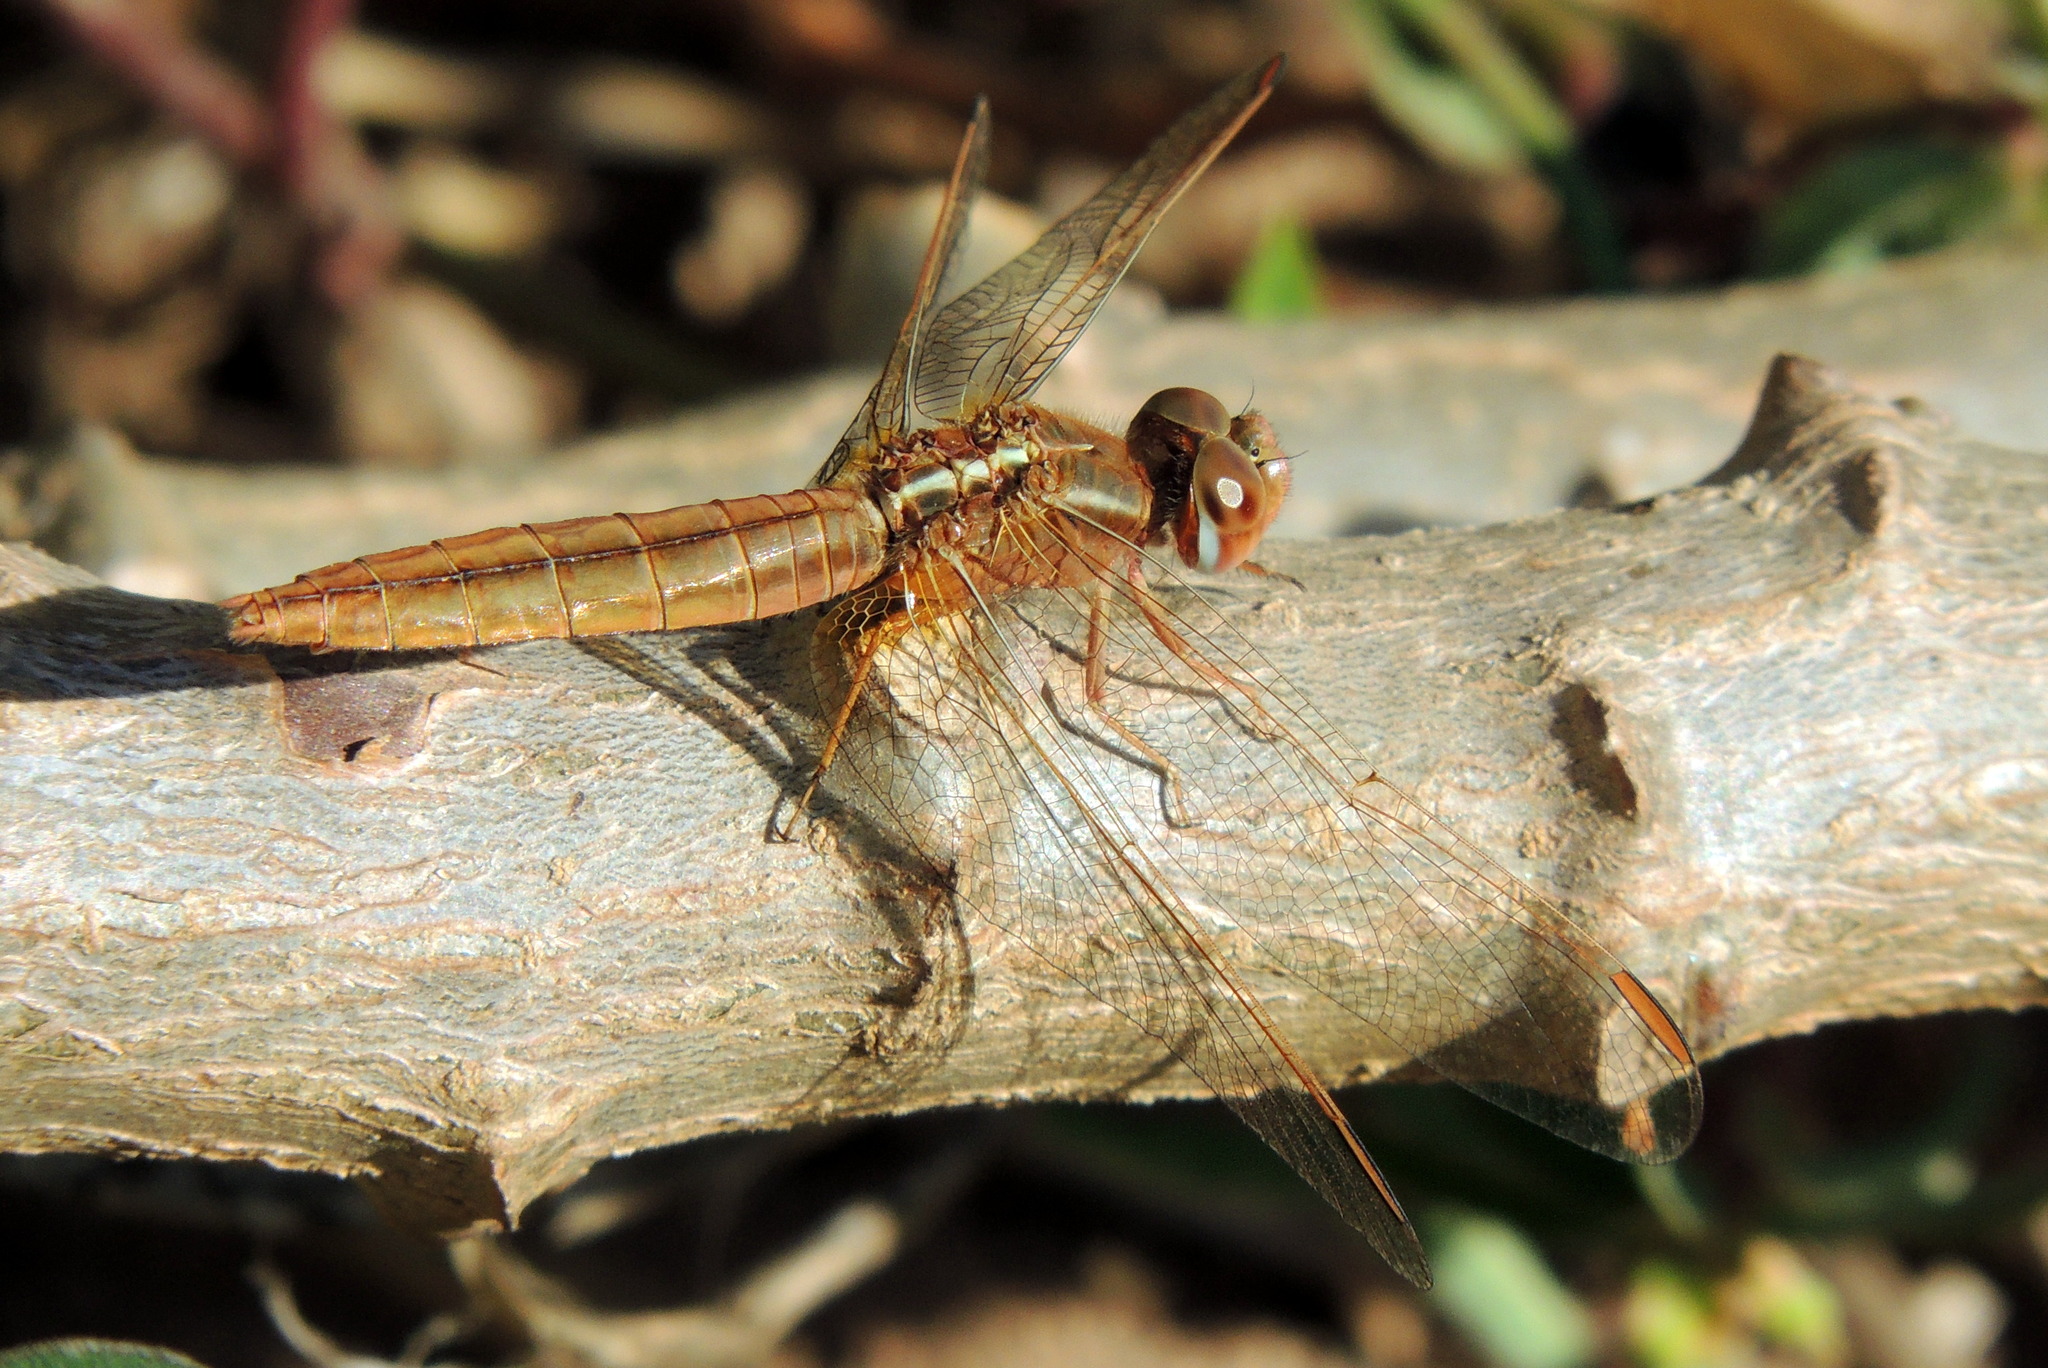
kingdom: Animalia
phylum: Arthropoda
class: Insecta
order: Odonata
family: Libellulidae
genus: Crocothemis
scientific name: Crocothemis erythraea
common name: Scarlet dragonfly
